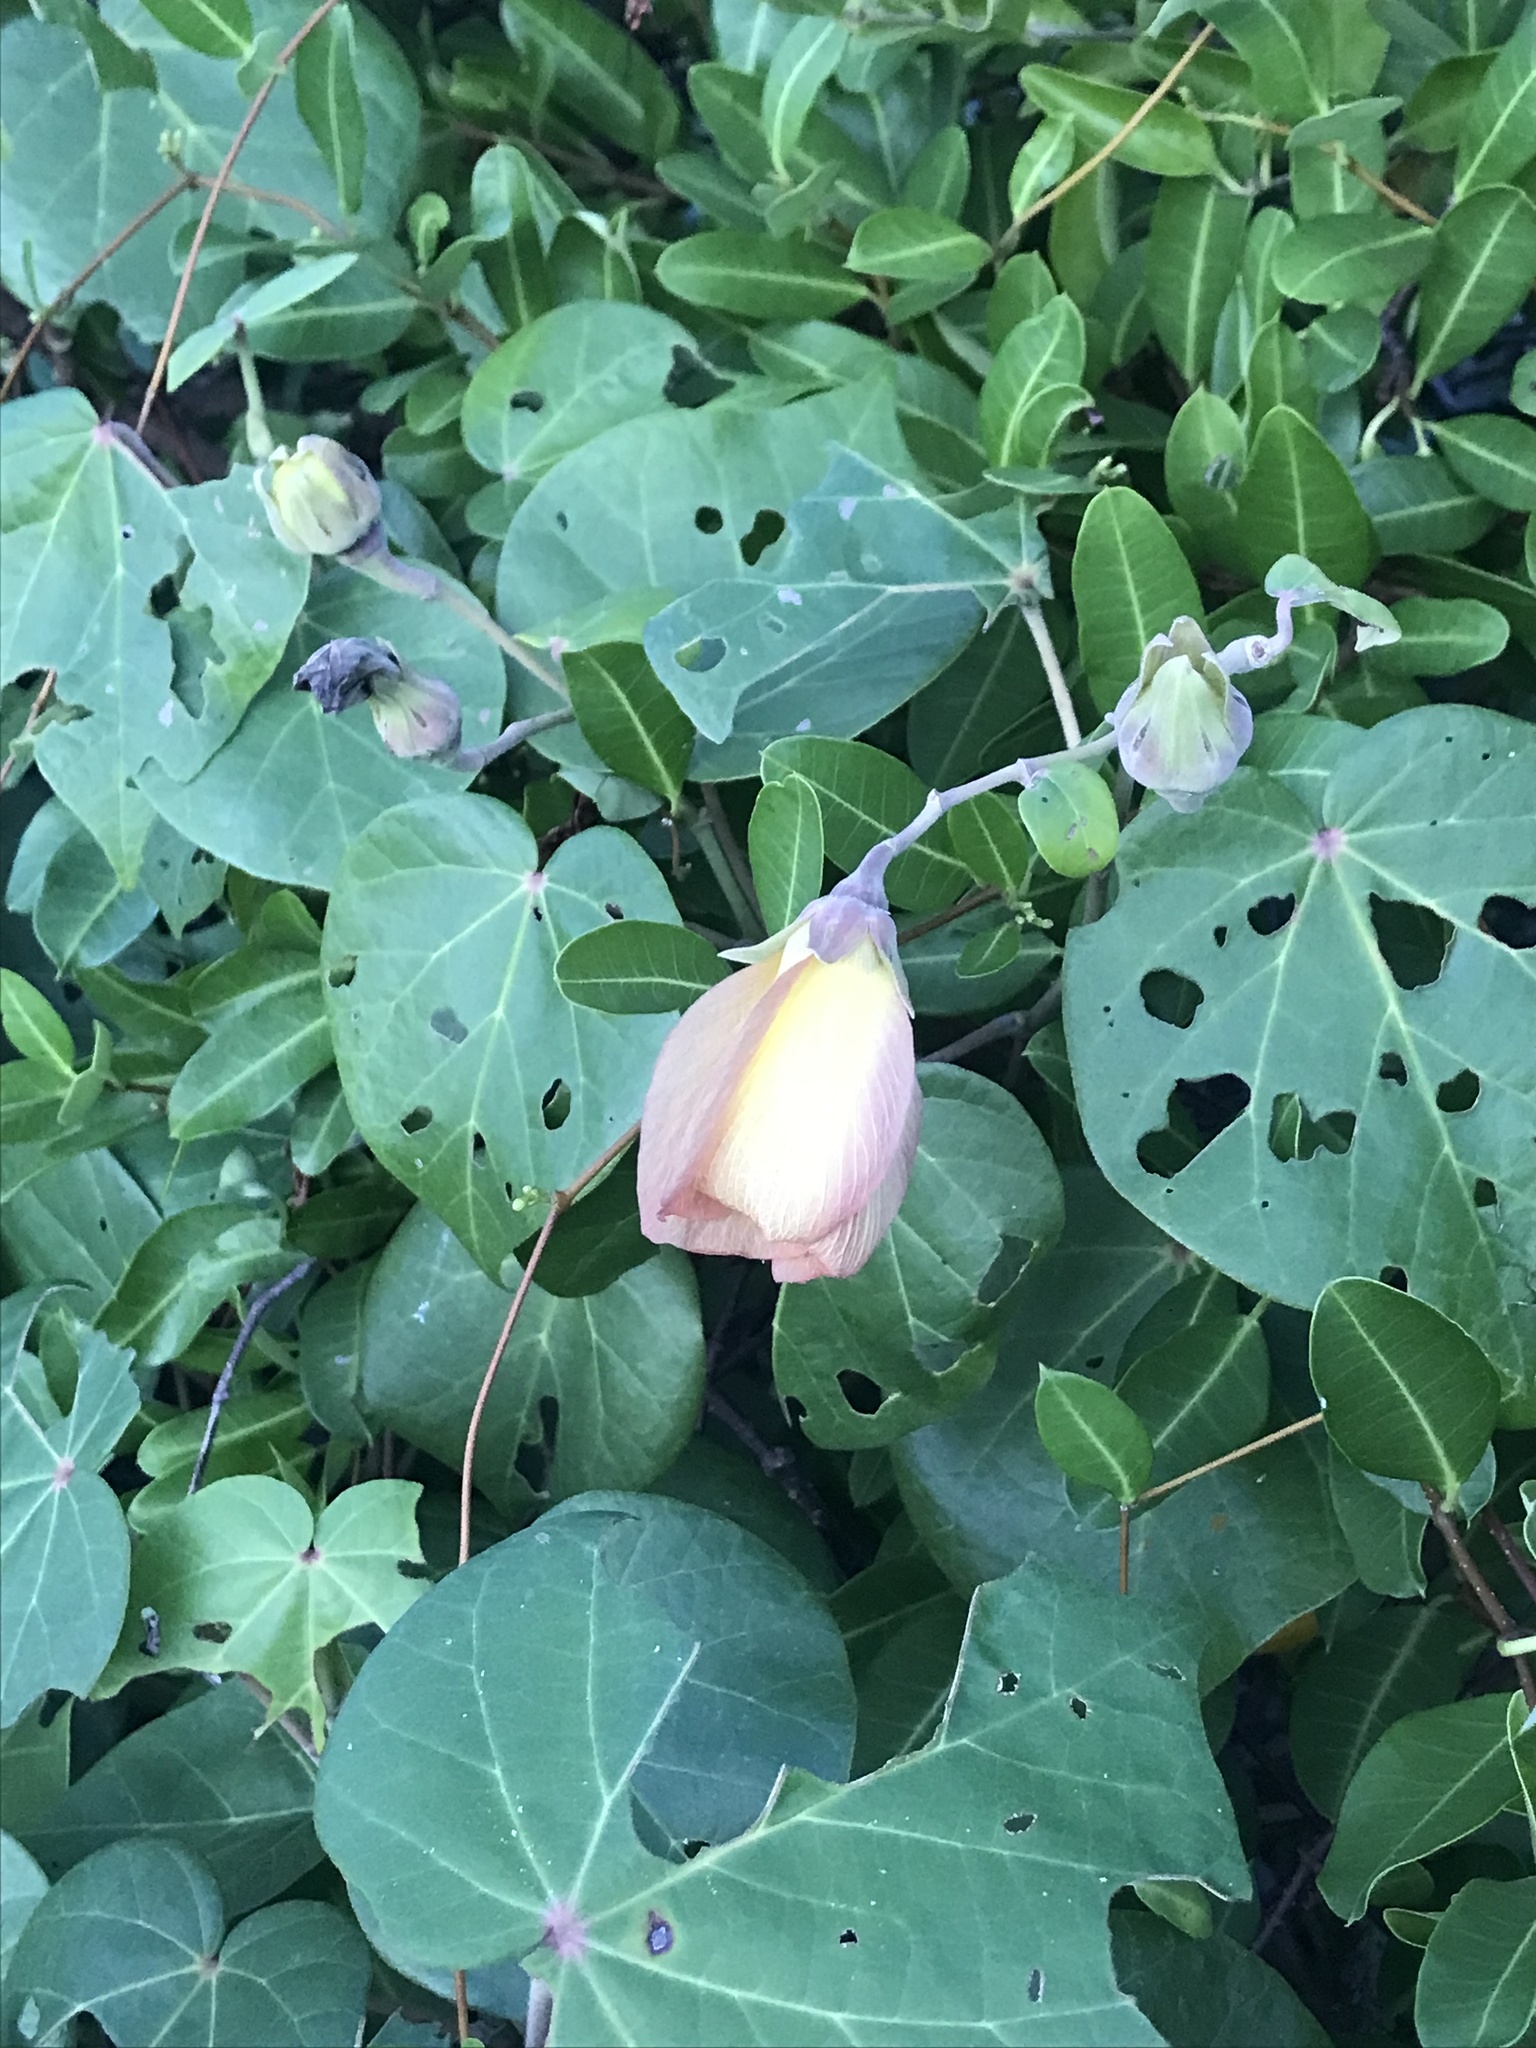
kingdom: Plantae
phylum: Tracheophyta
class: Magnoliopsida
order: Malvales
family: Malvaceae
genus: Talipariti
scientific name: Talipariti tiliaceum
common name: Sea hibiscus
